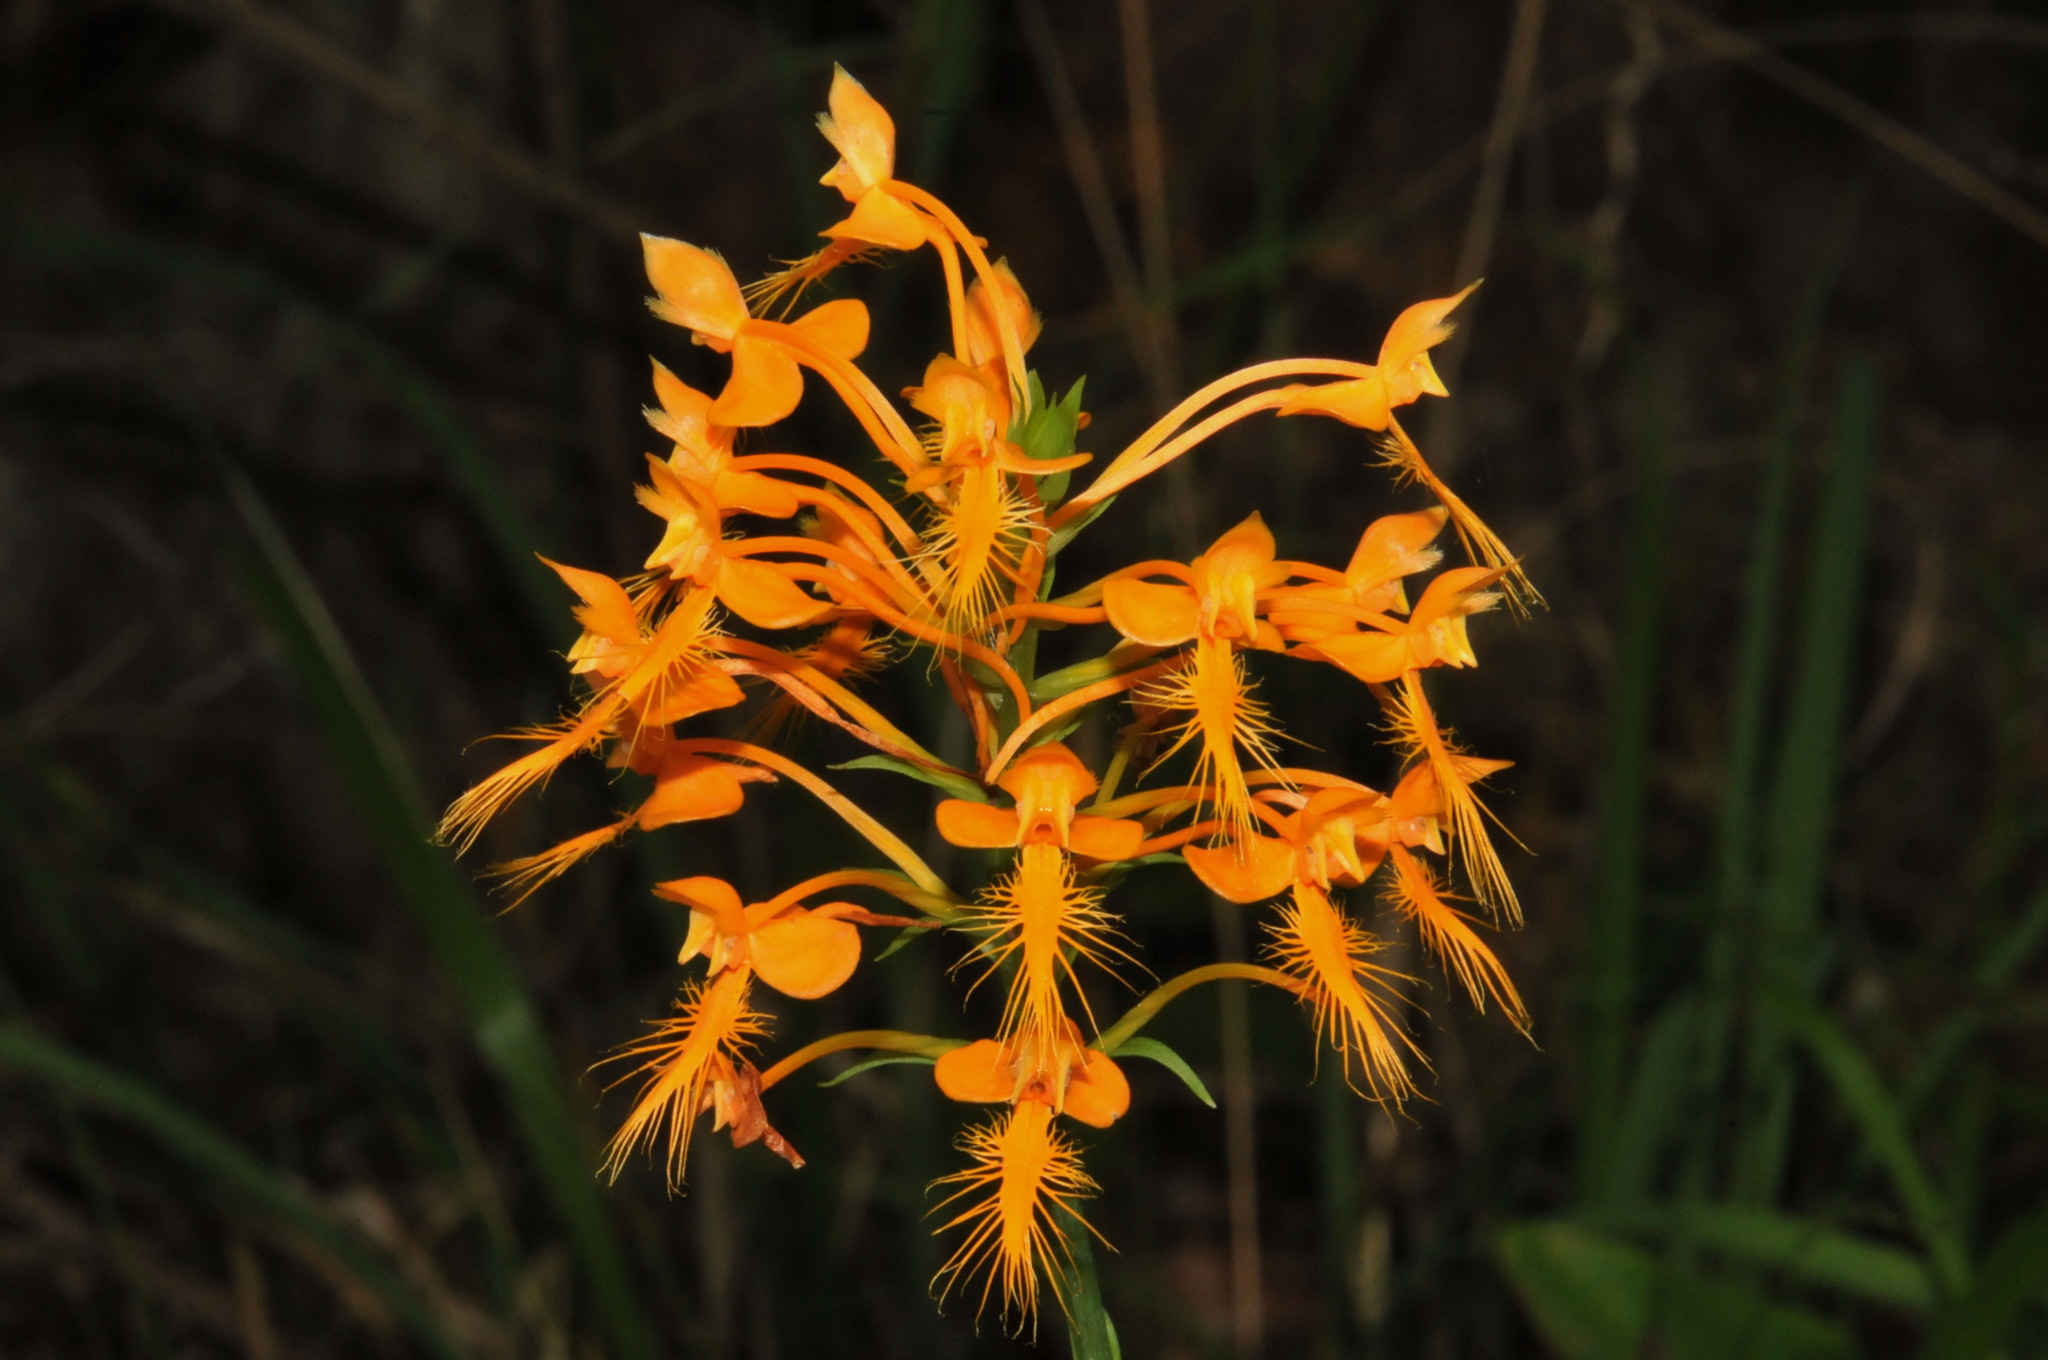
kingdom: Plantae
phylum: Tracheophyta
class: Liliopsida
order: Asparagales
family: Orchidaceae
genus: Platanthera
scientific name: Platanthera ciliaris
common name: Yellow fringed orchid
